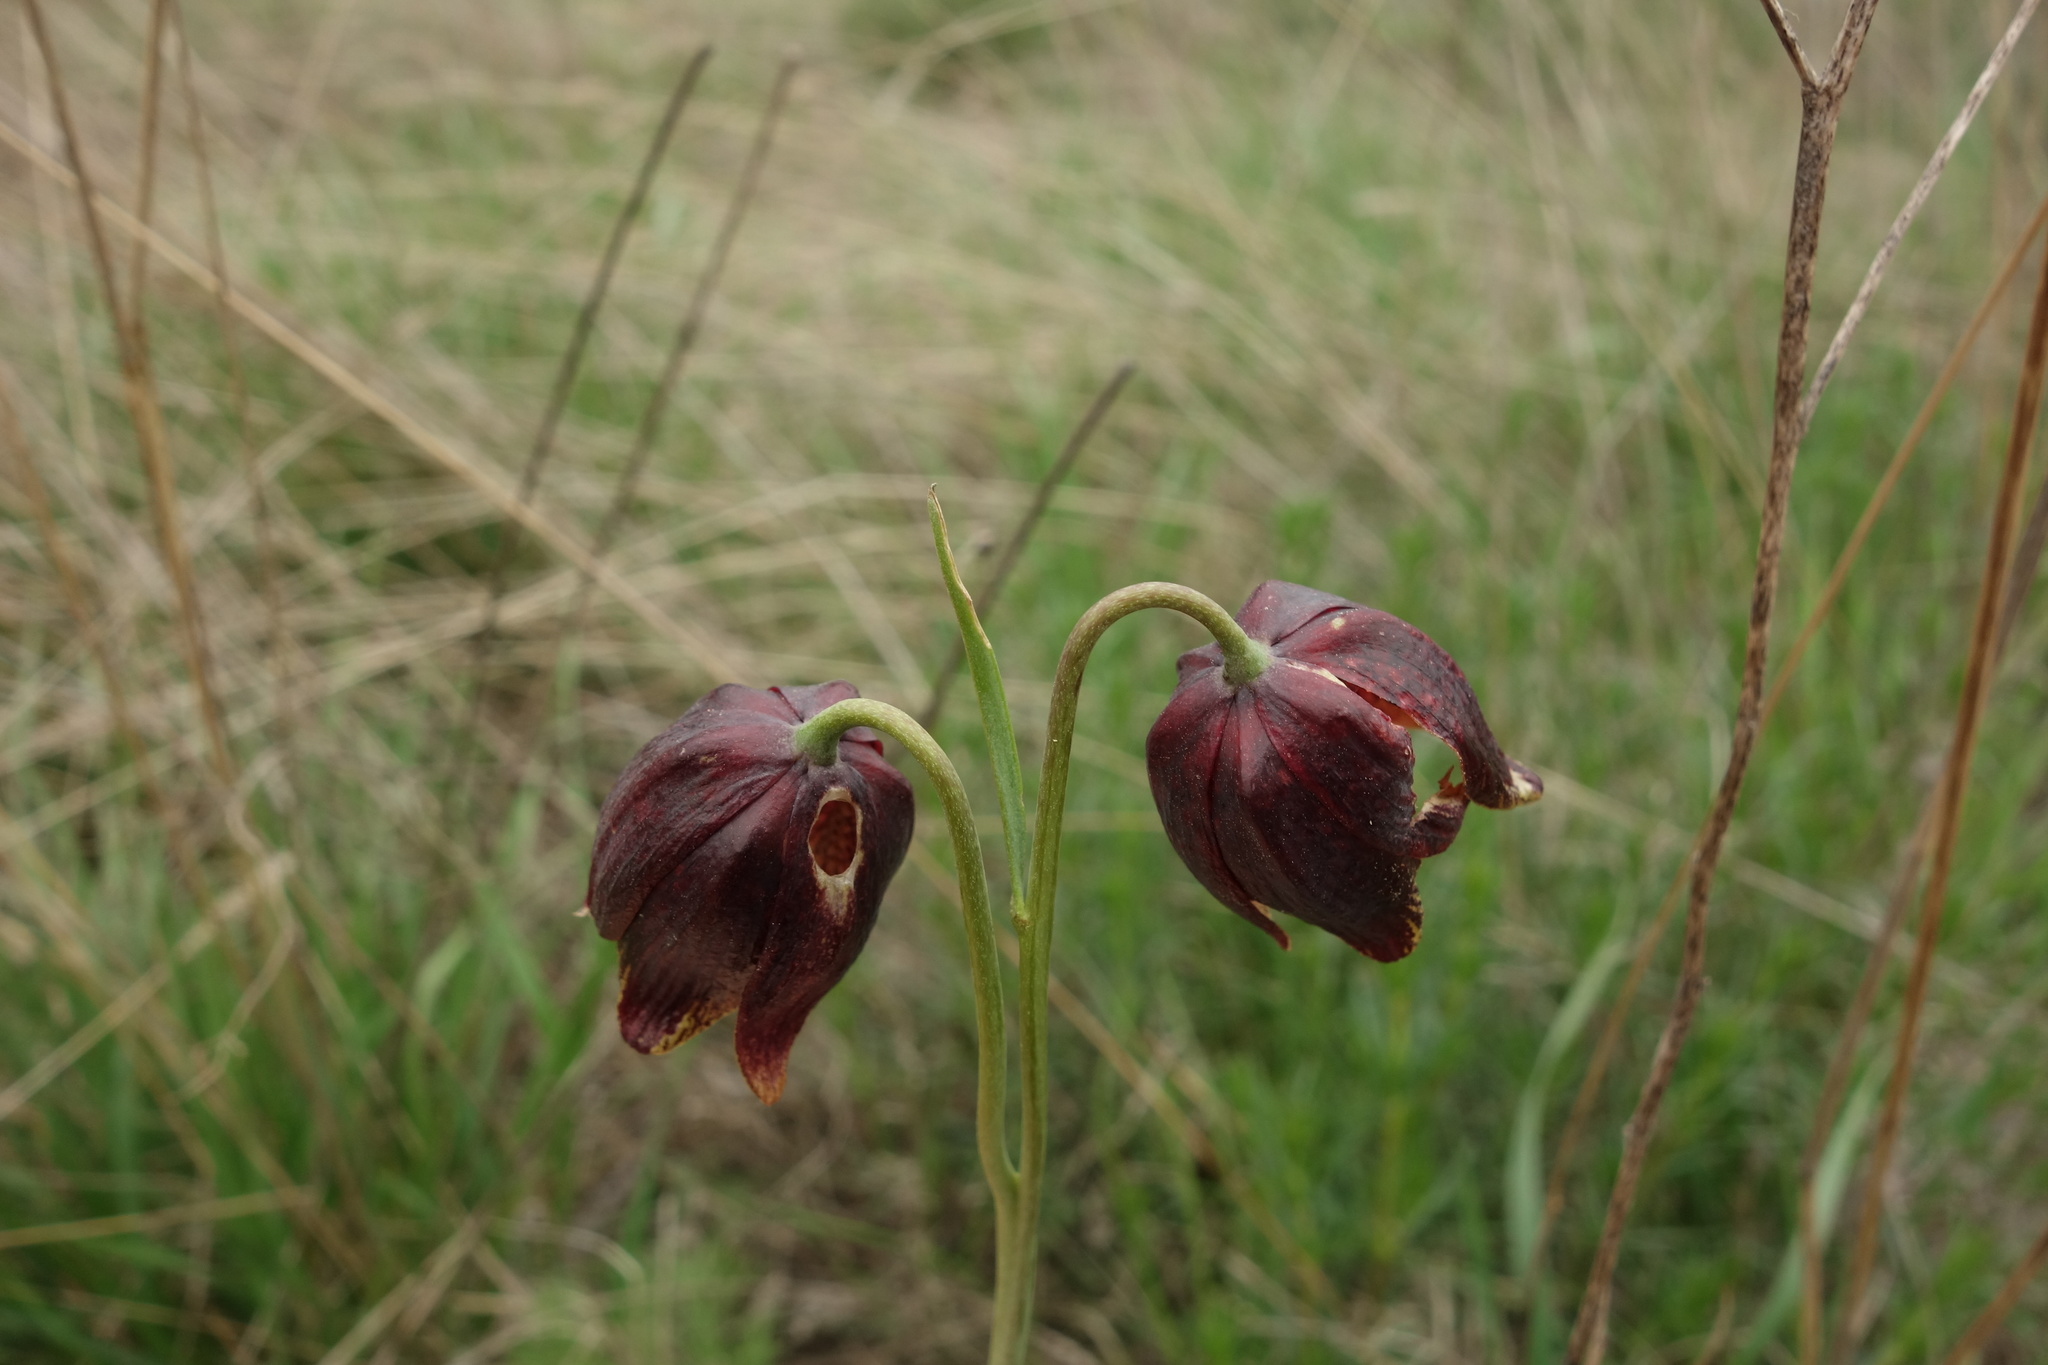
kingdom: Plantae
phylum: Tracheophyta
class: Liliopsida
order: Liliales
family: Liliaceae
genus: Fritillaria
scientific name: Fritillaria meleagroides
